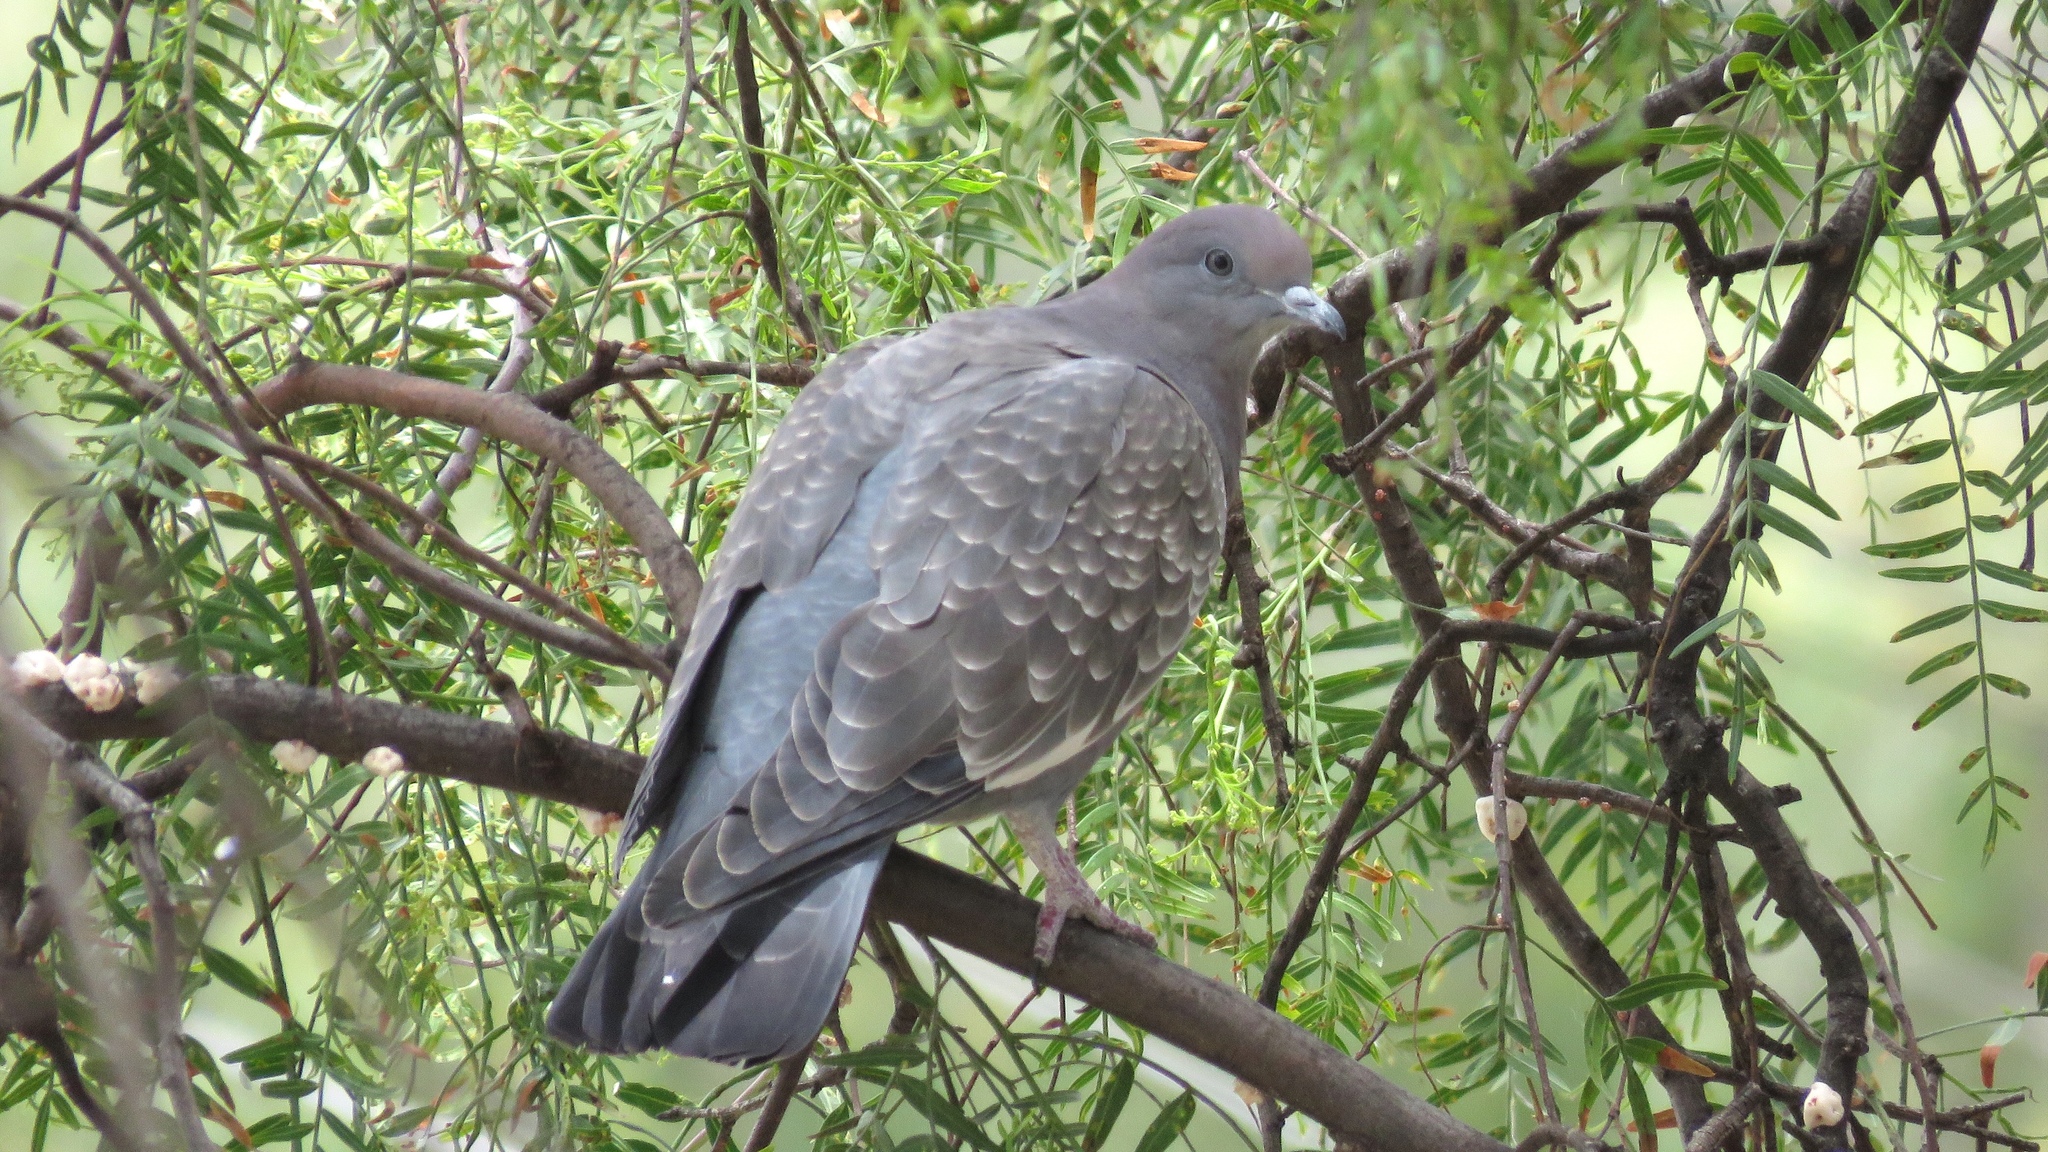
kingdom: Animalia
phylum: Chordata
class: Aves
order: Columbiformes
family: Columbidae
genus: Patagioenas
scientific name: Patagioenas maculosa
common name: Spot-winged pigeon
